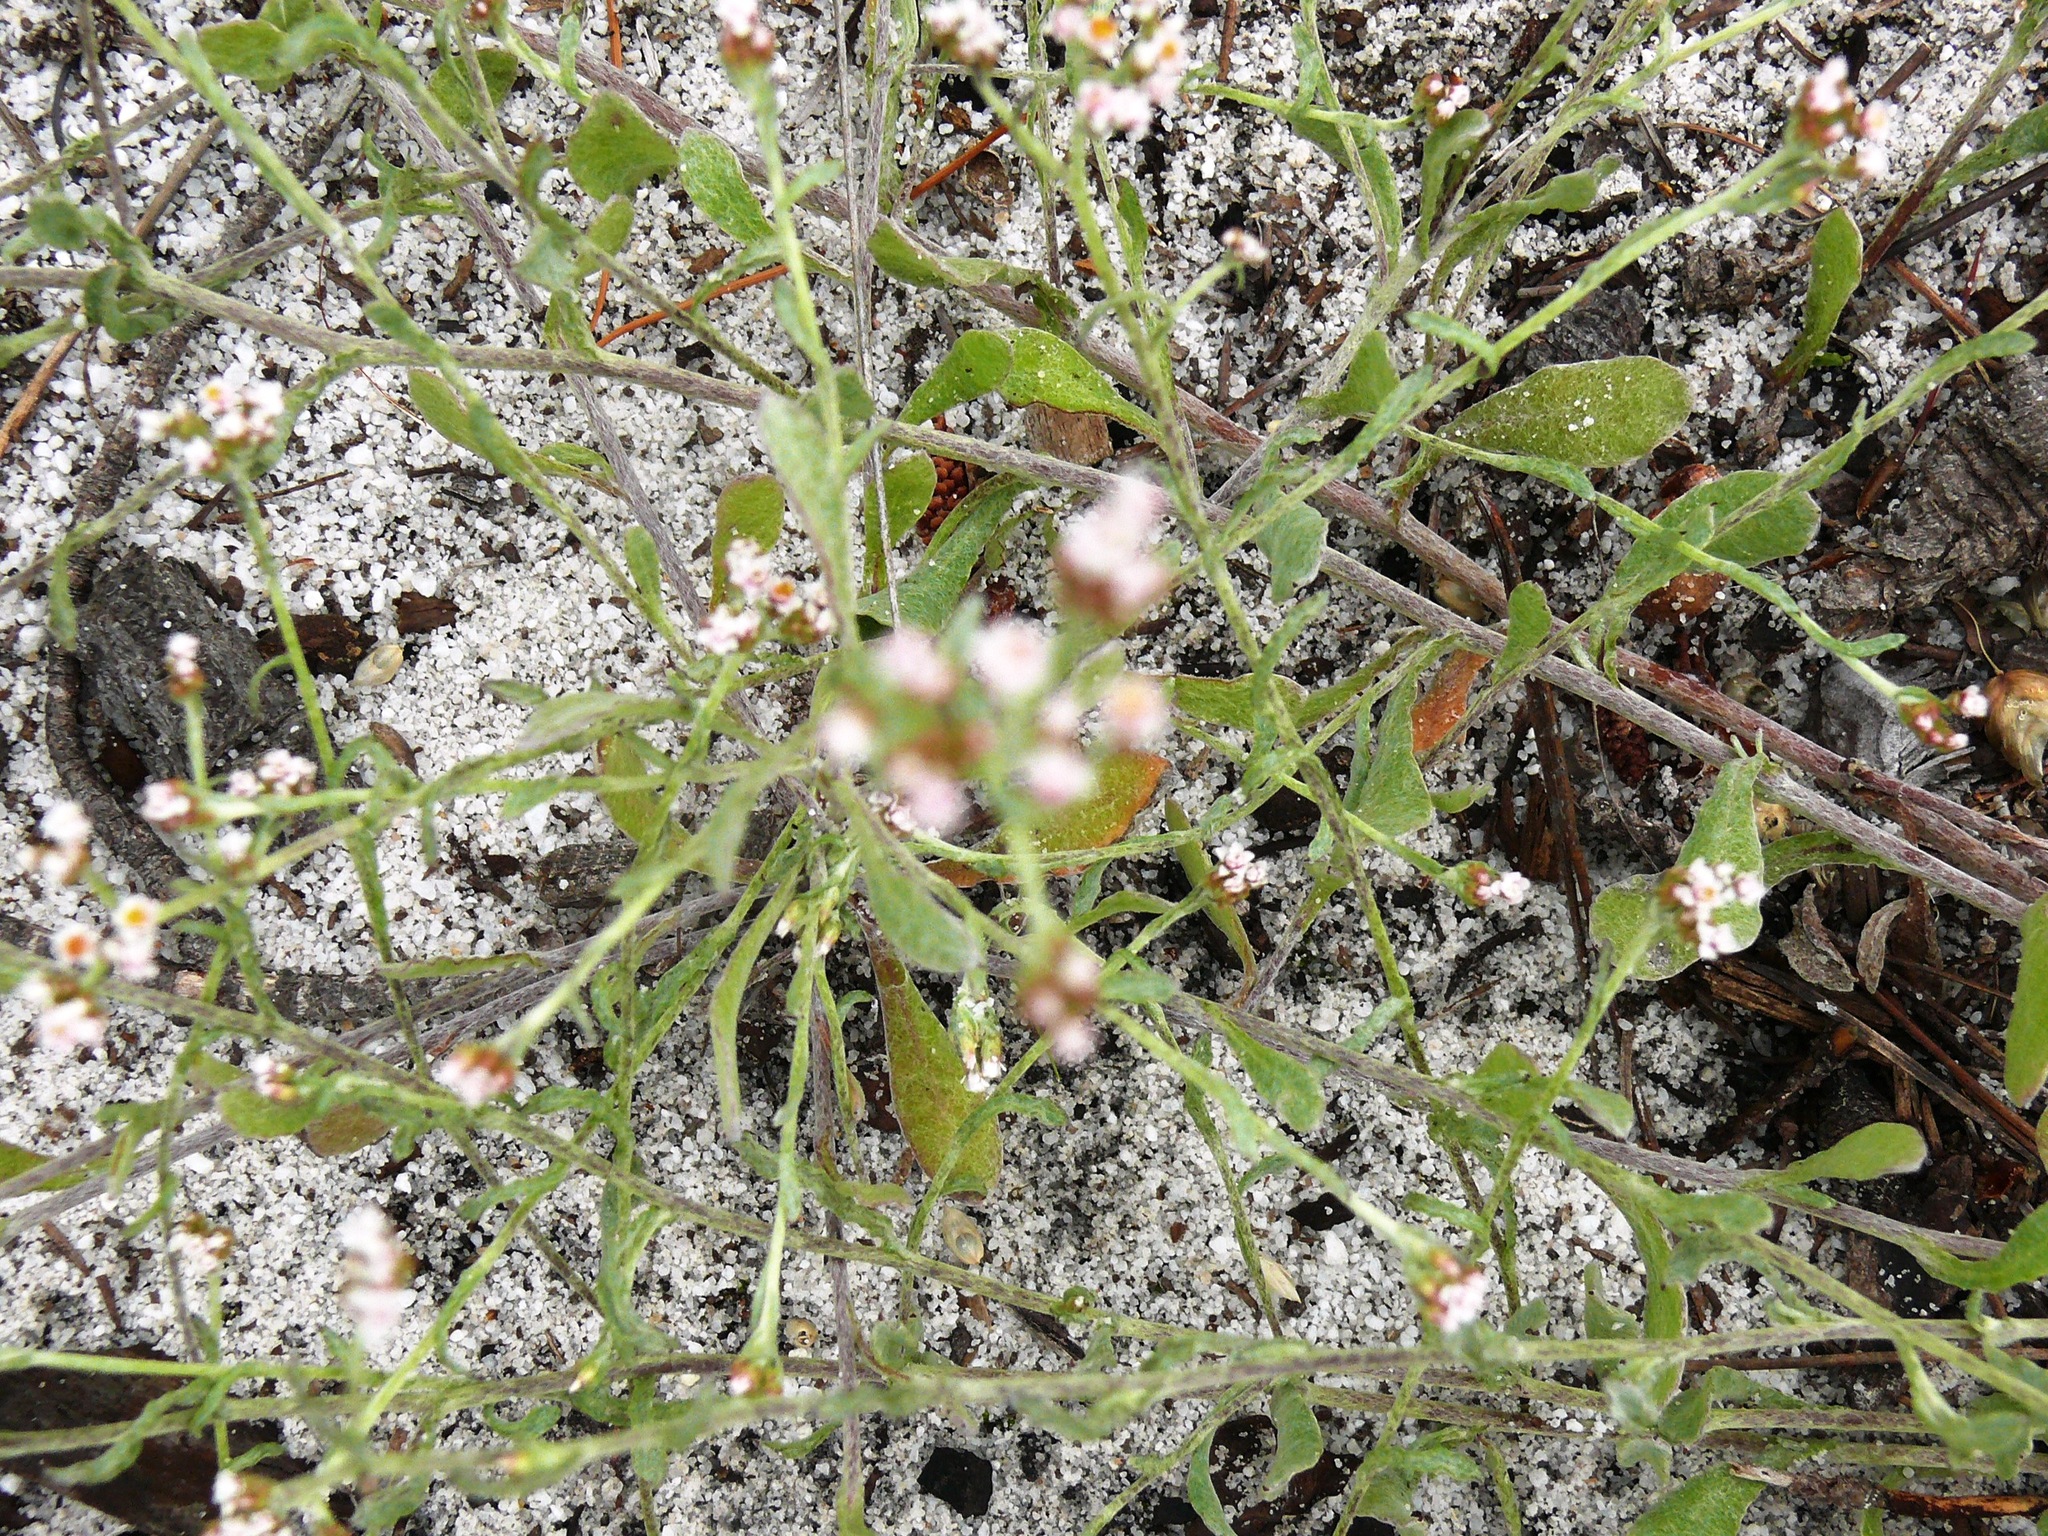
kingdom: Plantae
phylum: Tracheophyta
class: Magnoliopsida
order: Asterales
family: Asteraceae
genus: Helichrysum
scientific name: Helichrysum indicum
